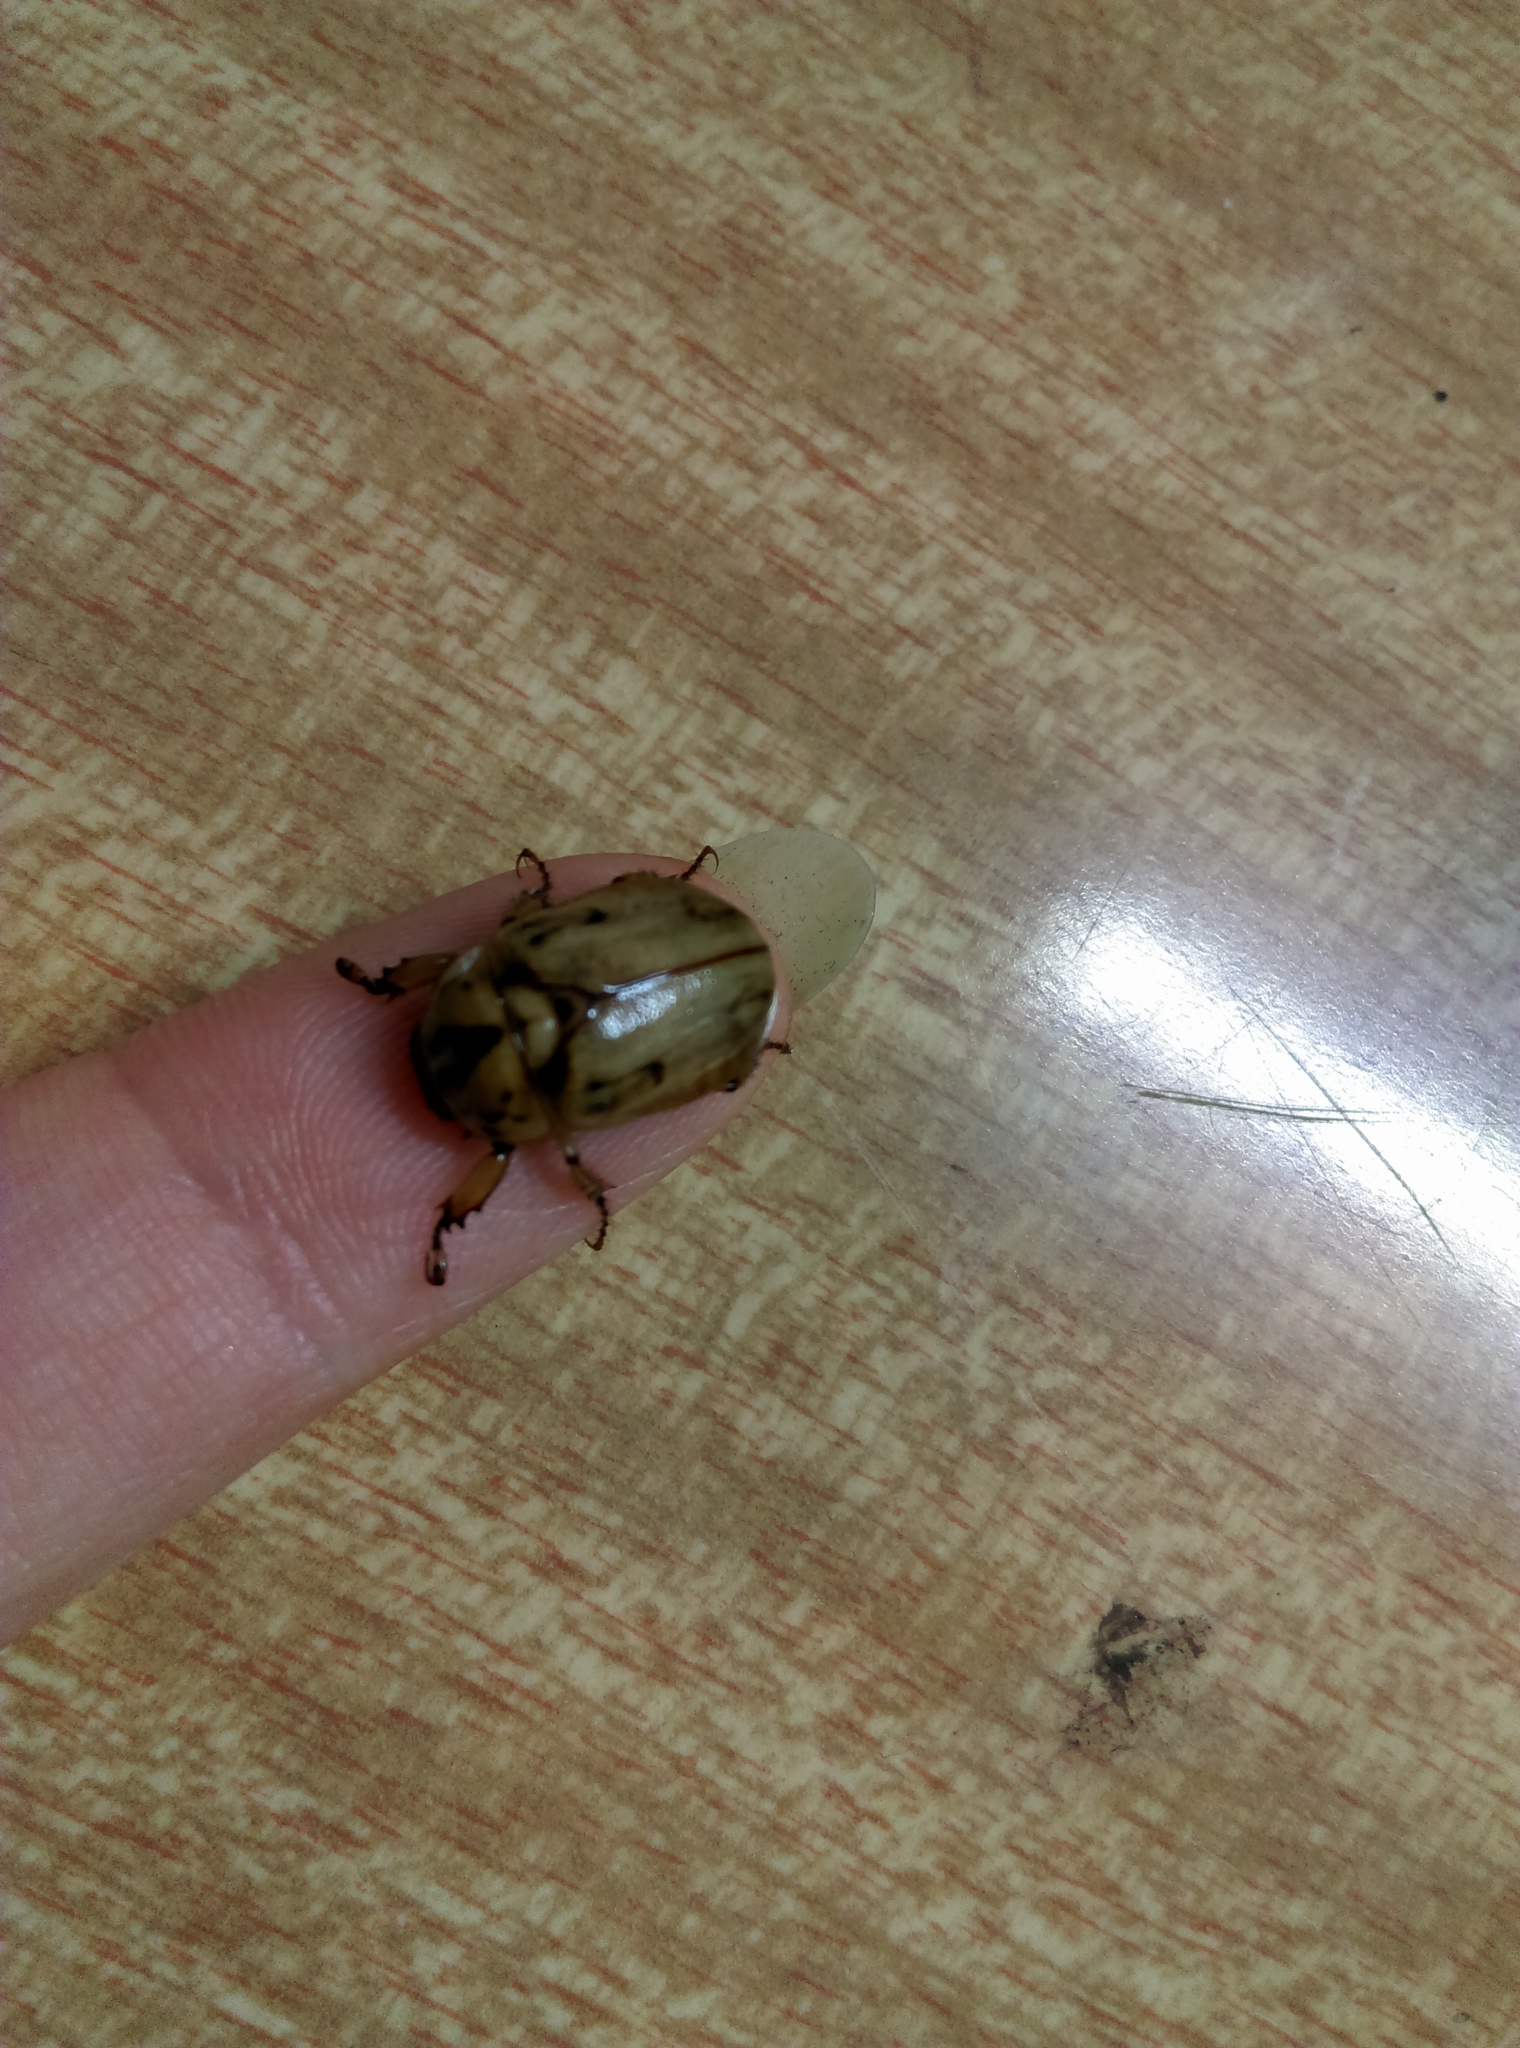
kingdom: Animalia
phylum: Arthropoda
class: Insecta
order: Coleoptera
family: Scarabaeidae
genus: Cyclocephala
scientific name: Cyclocephala signaticollis
